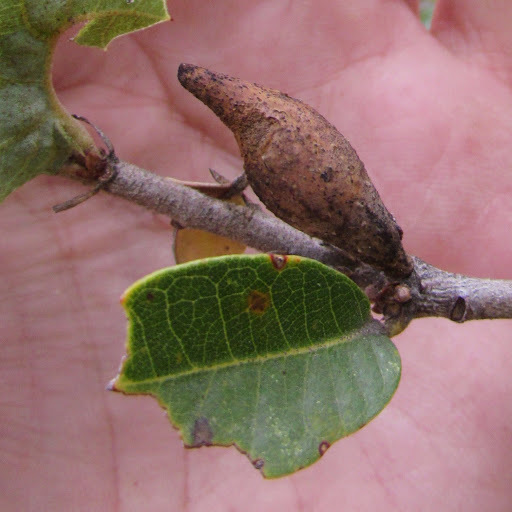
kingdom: Animalia
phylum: Arthropoda
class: Insecta
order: Hymenoptera
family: Cynipidae
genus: Heteroecus
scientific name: Heteroecus pacificus
